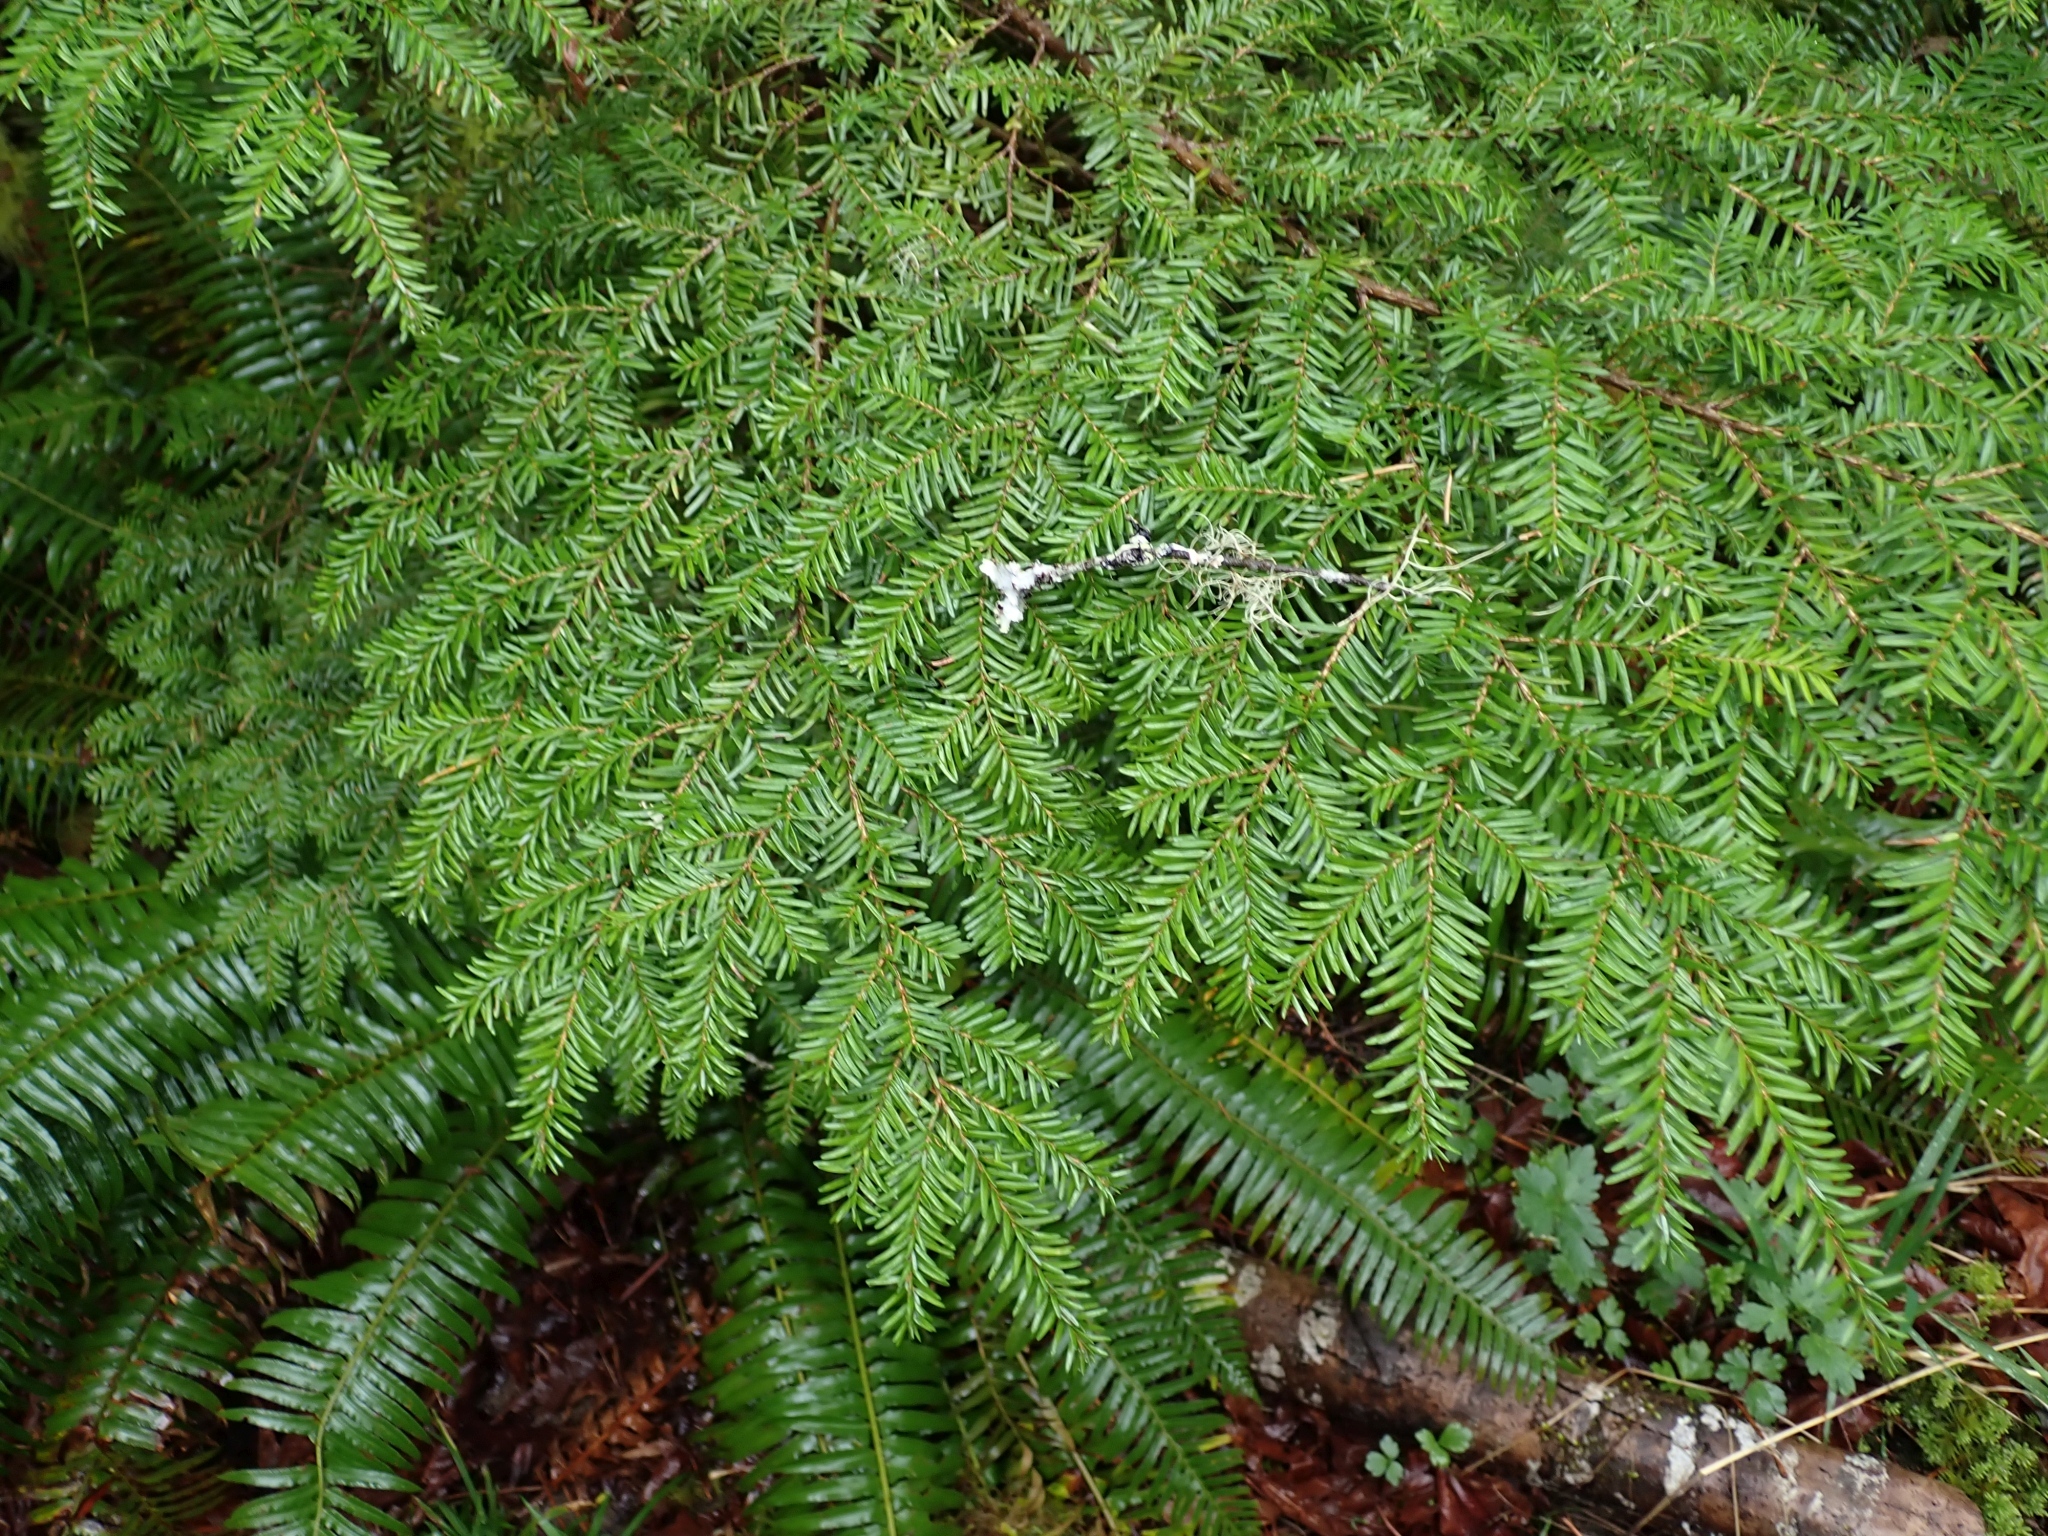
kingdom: Plantae
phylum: Tracheophyta
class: Pinopsida
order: Pinales
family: Pinaceae
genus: Tsuga
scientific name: Tsuga heterophylla
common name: Western hemlock
